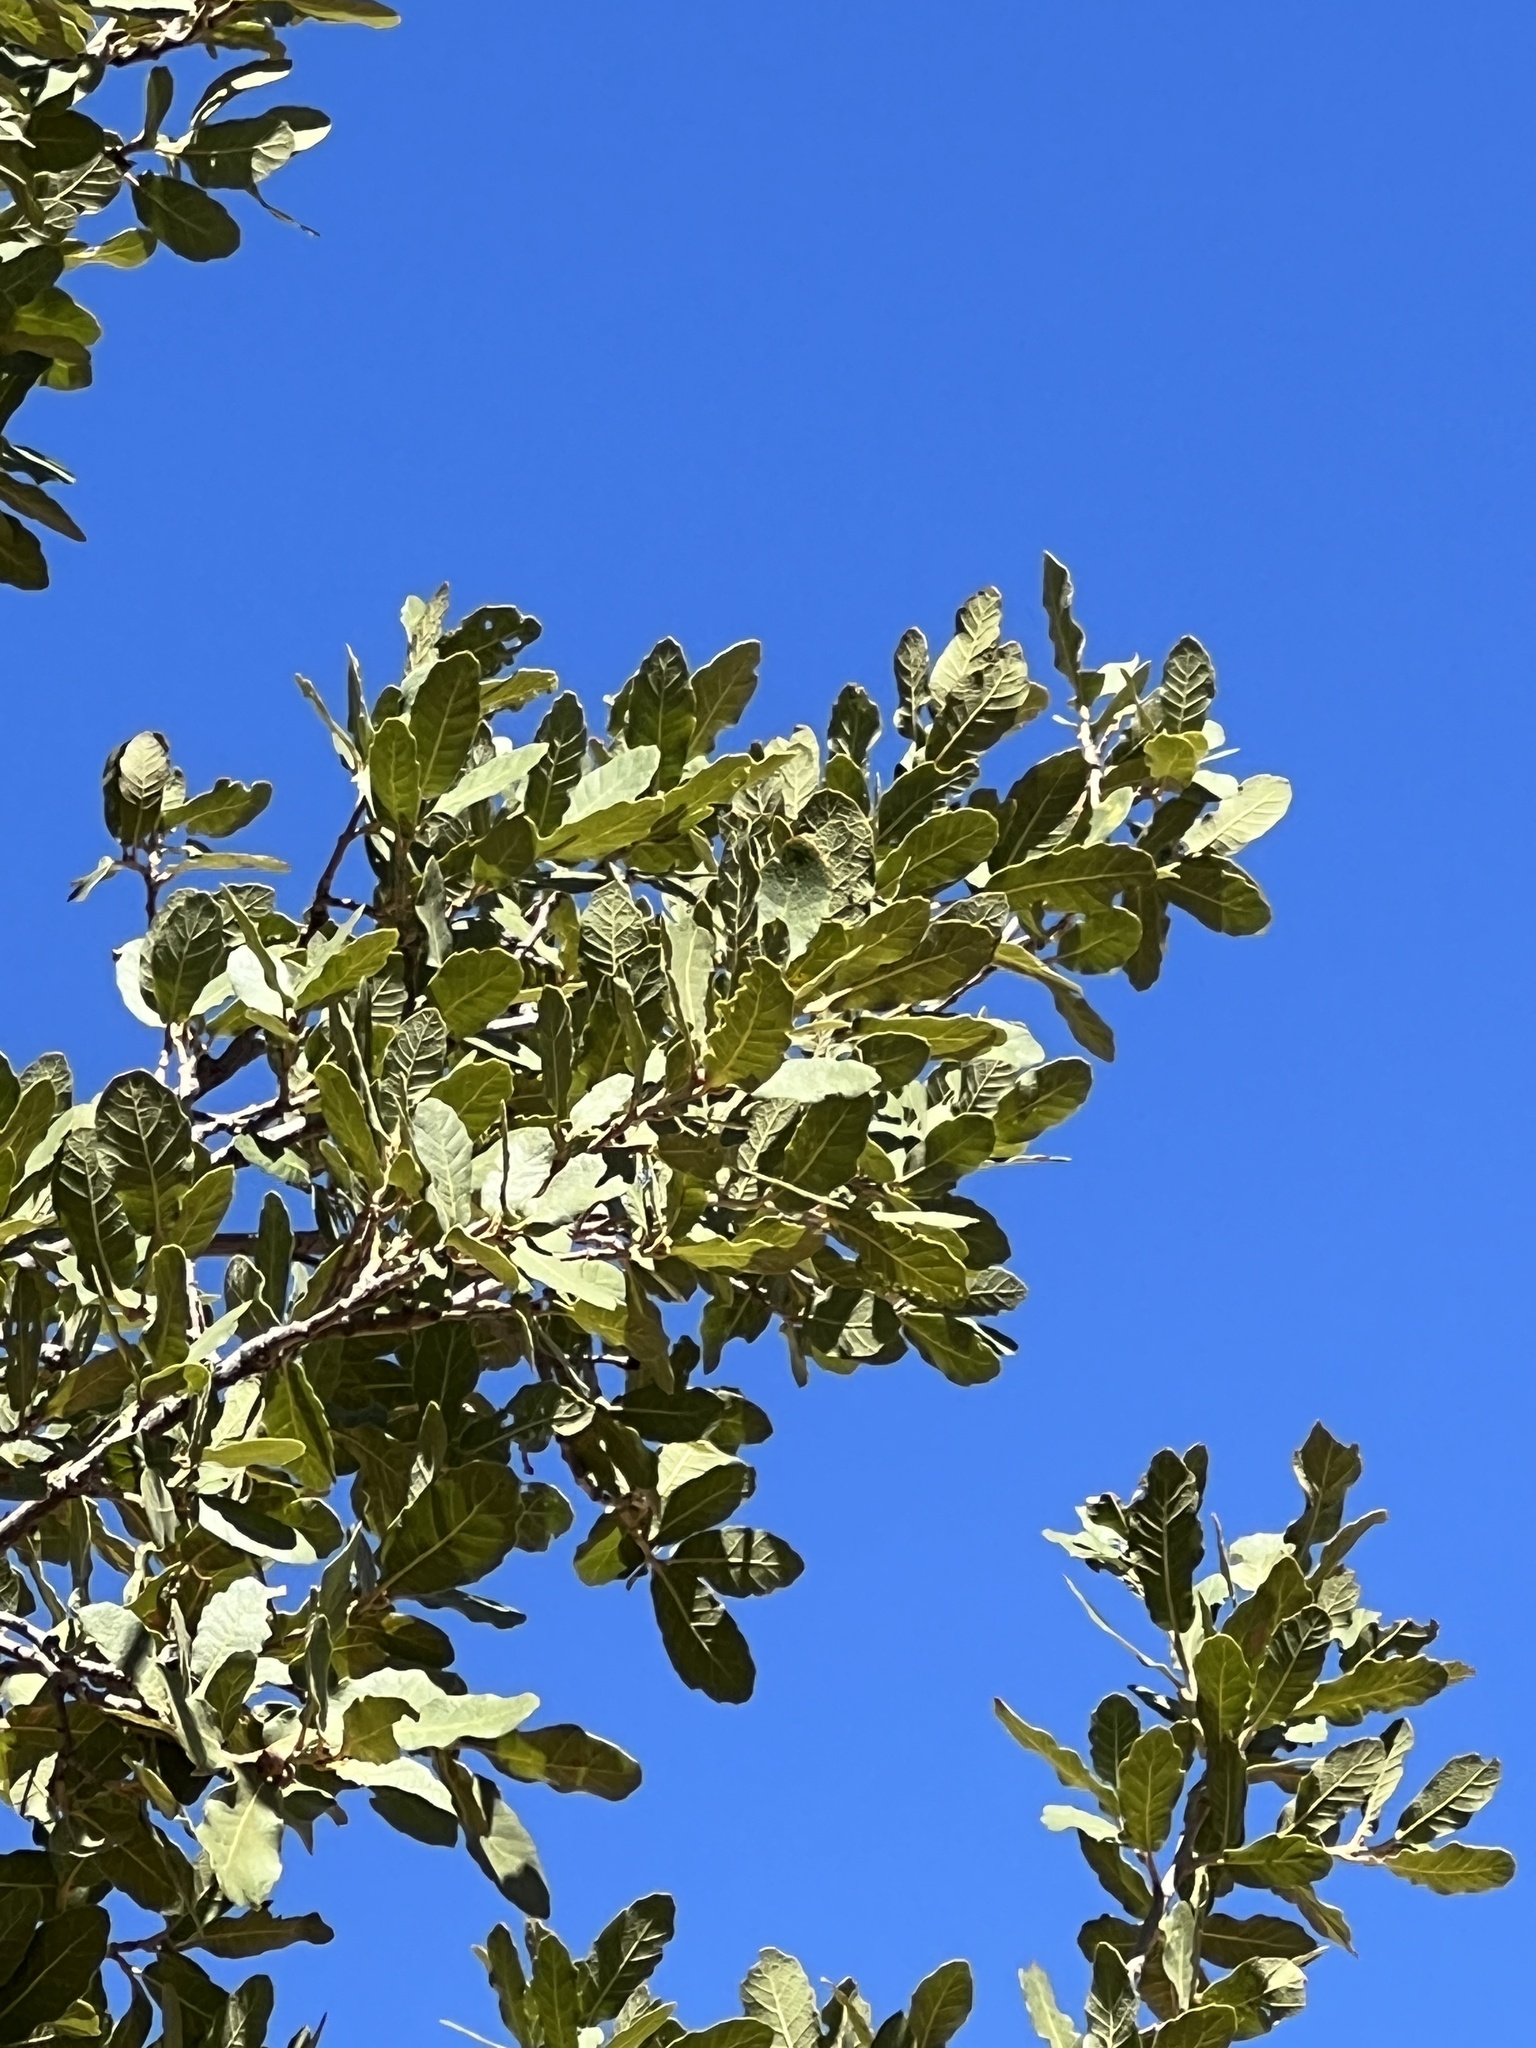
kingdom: Plantae
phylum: Tracheophyta
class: Magnoliopsida
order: Fagales
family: Fagaceae
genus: Quercus
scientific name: Quercus arizonica
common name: Arizona white oak
